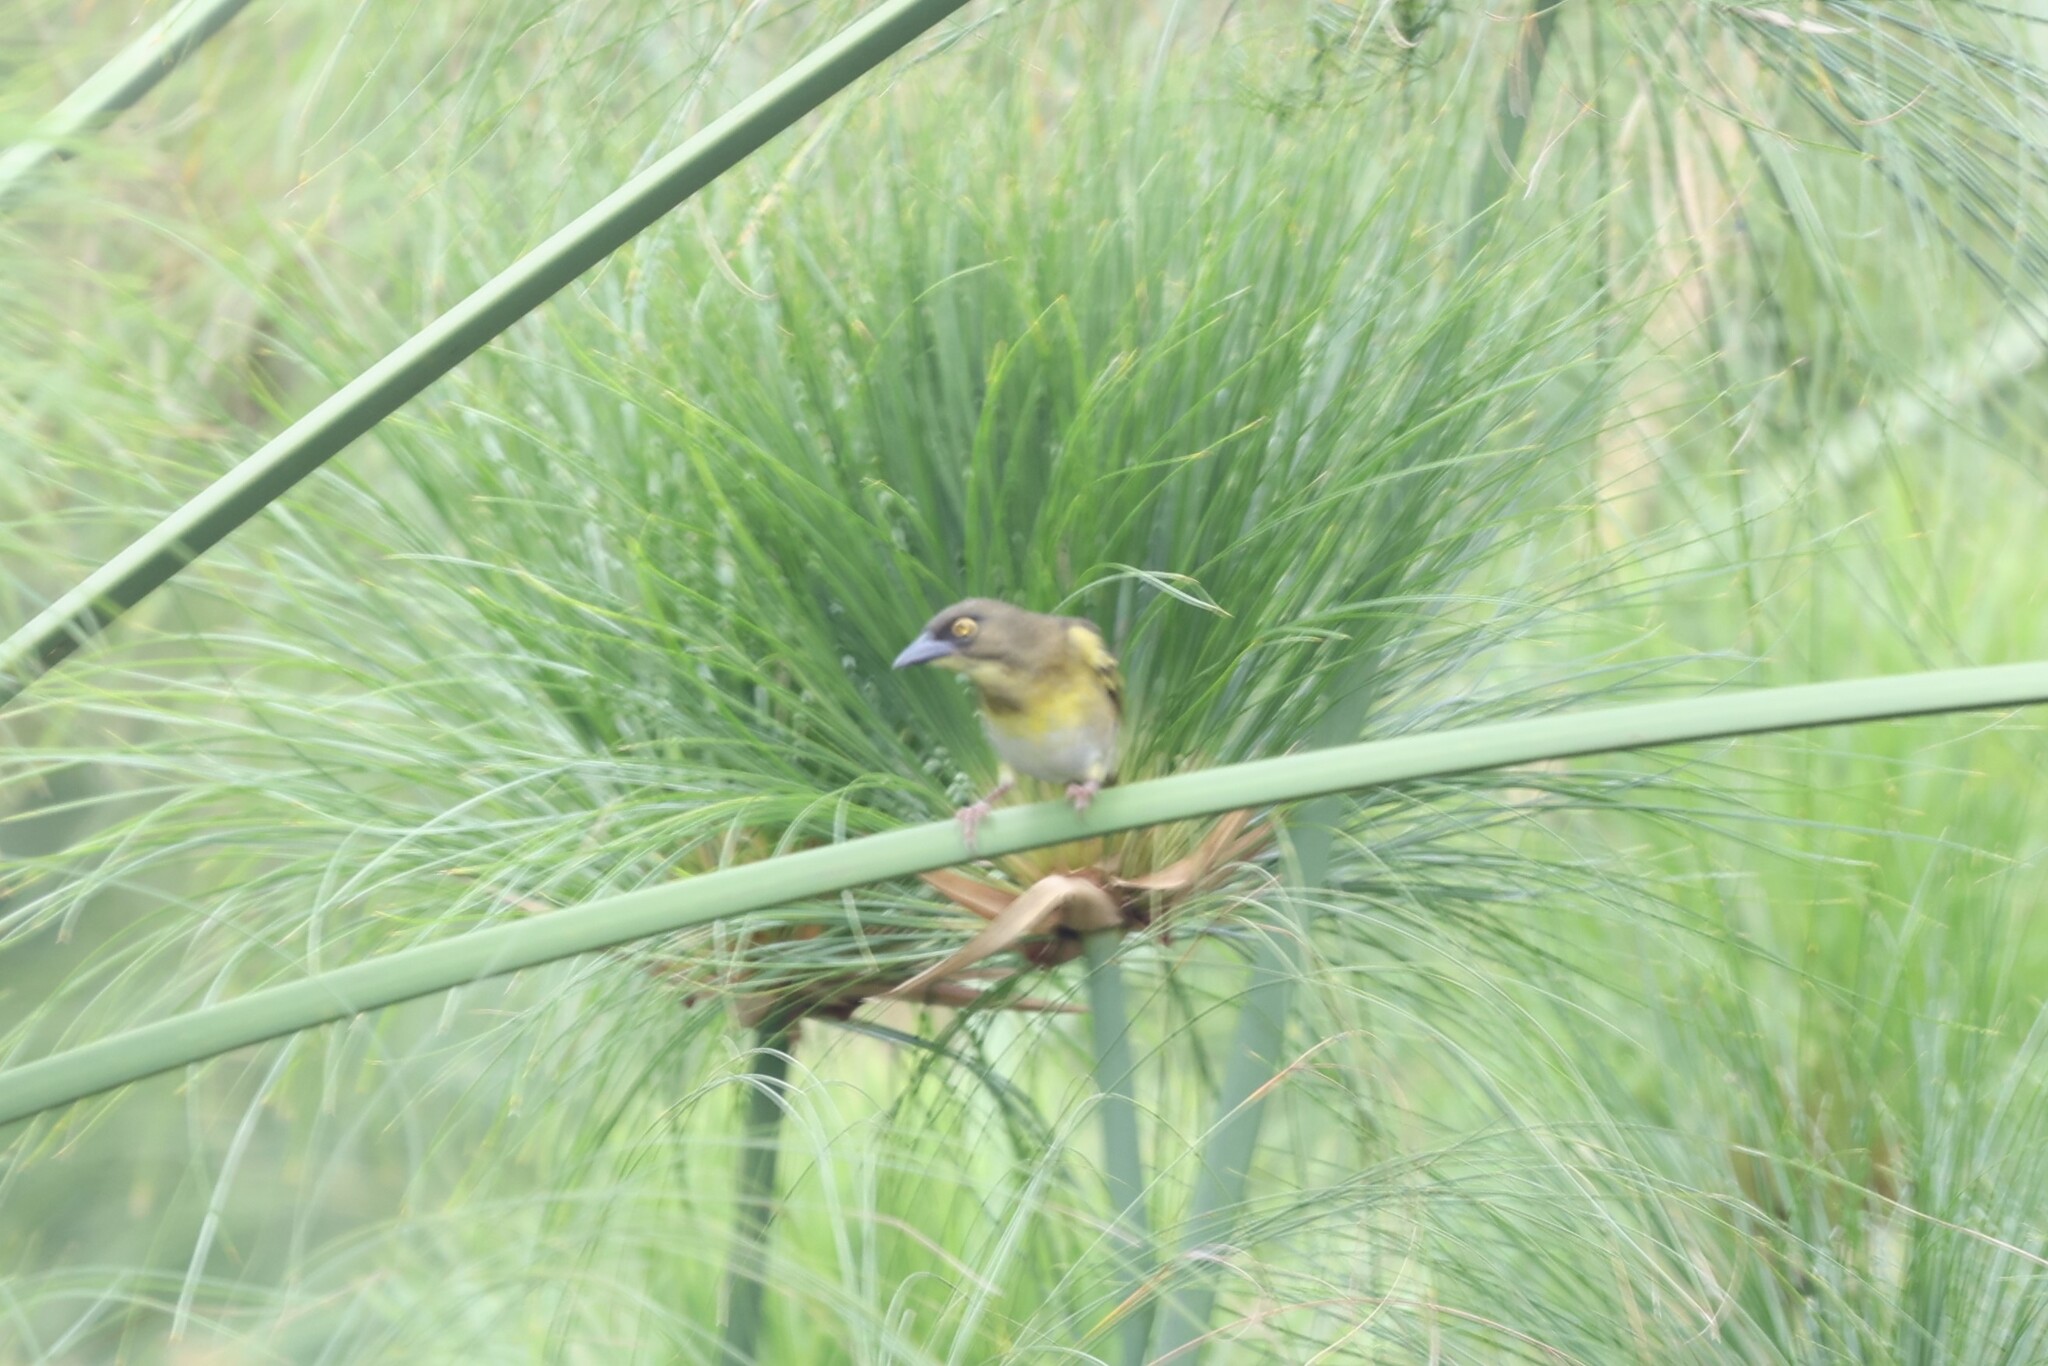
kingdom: Animalia
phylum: Chordata
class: Aves
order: Passeriformes
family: Ploceidae
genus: Ploceus
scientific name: Ploceus weynsi
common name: Weyns's weaver
